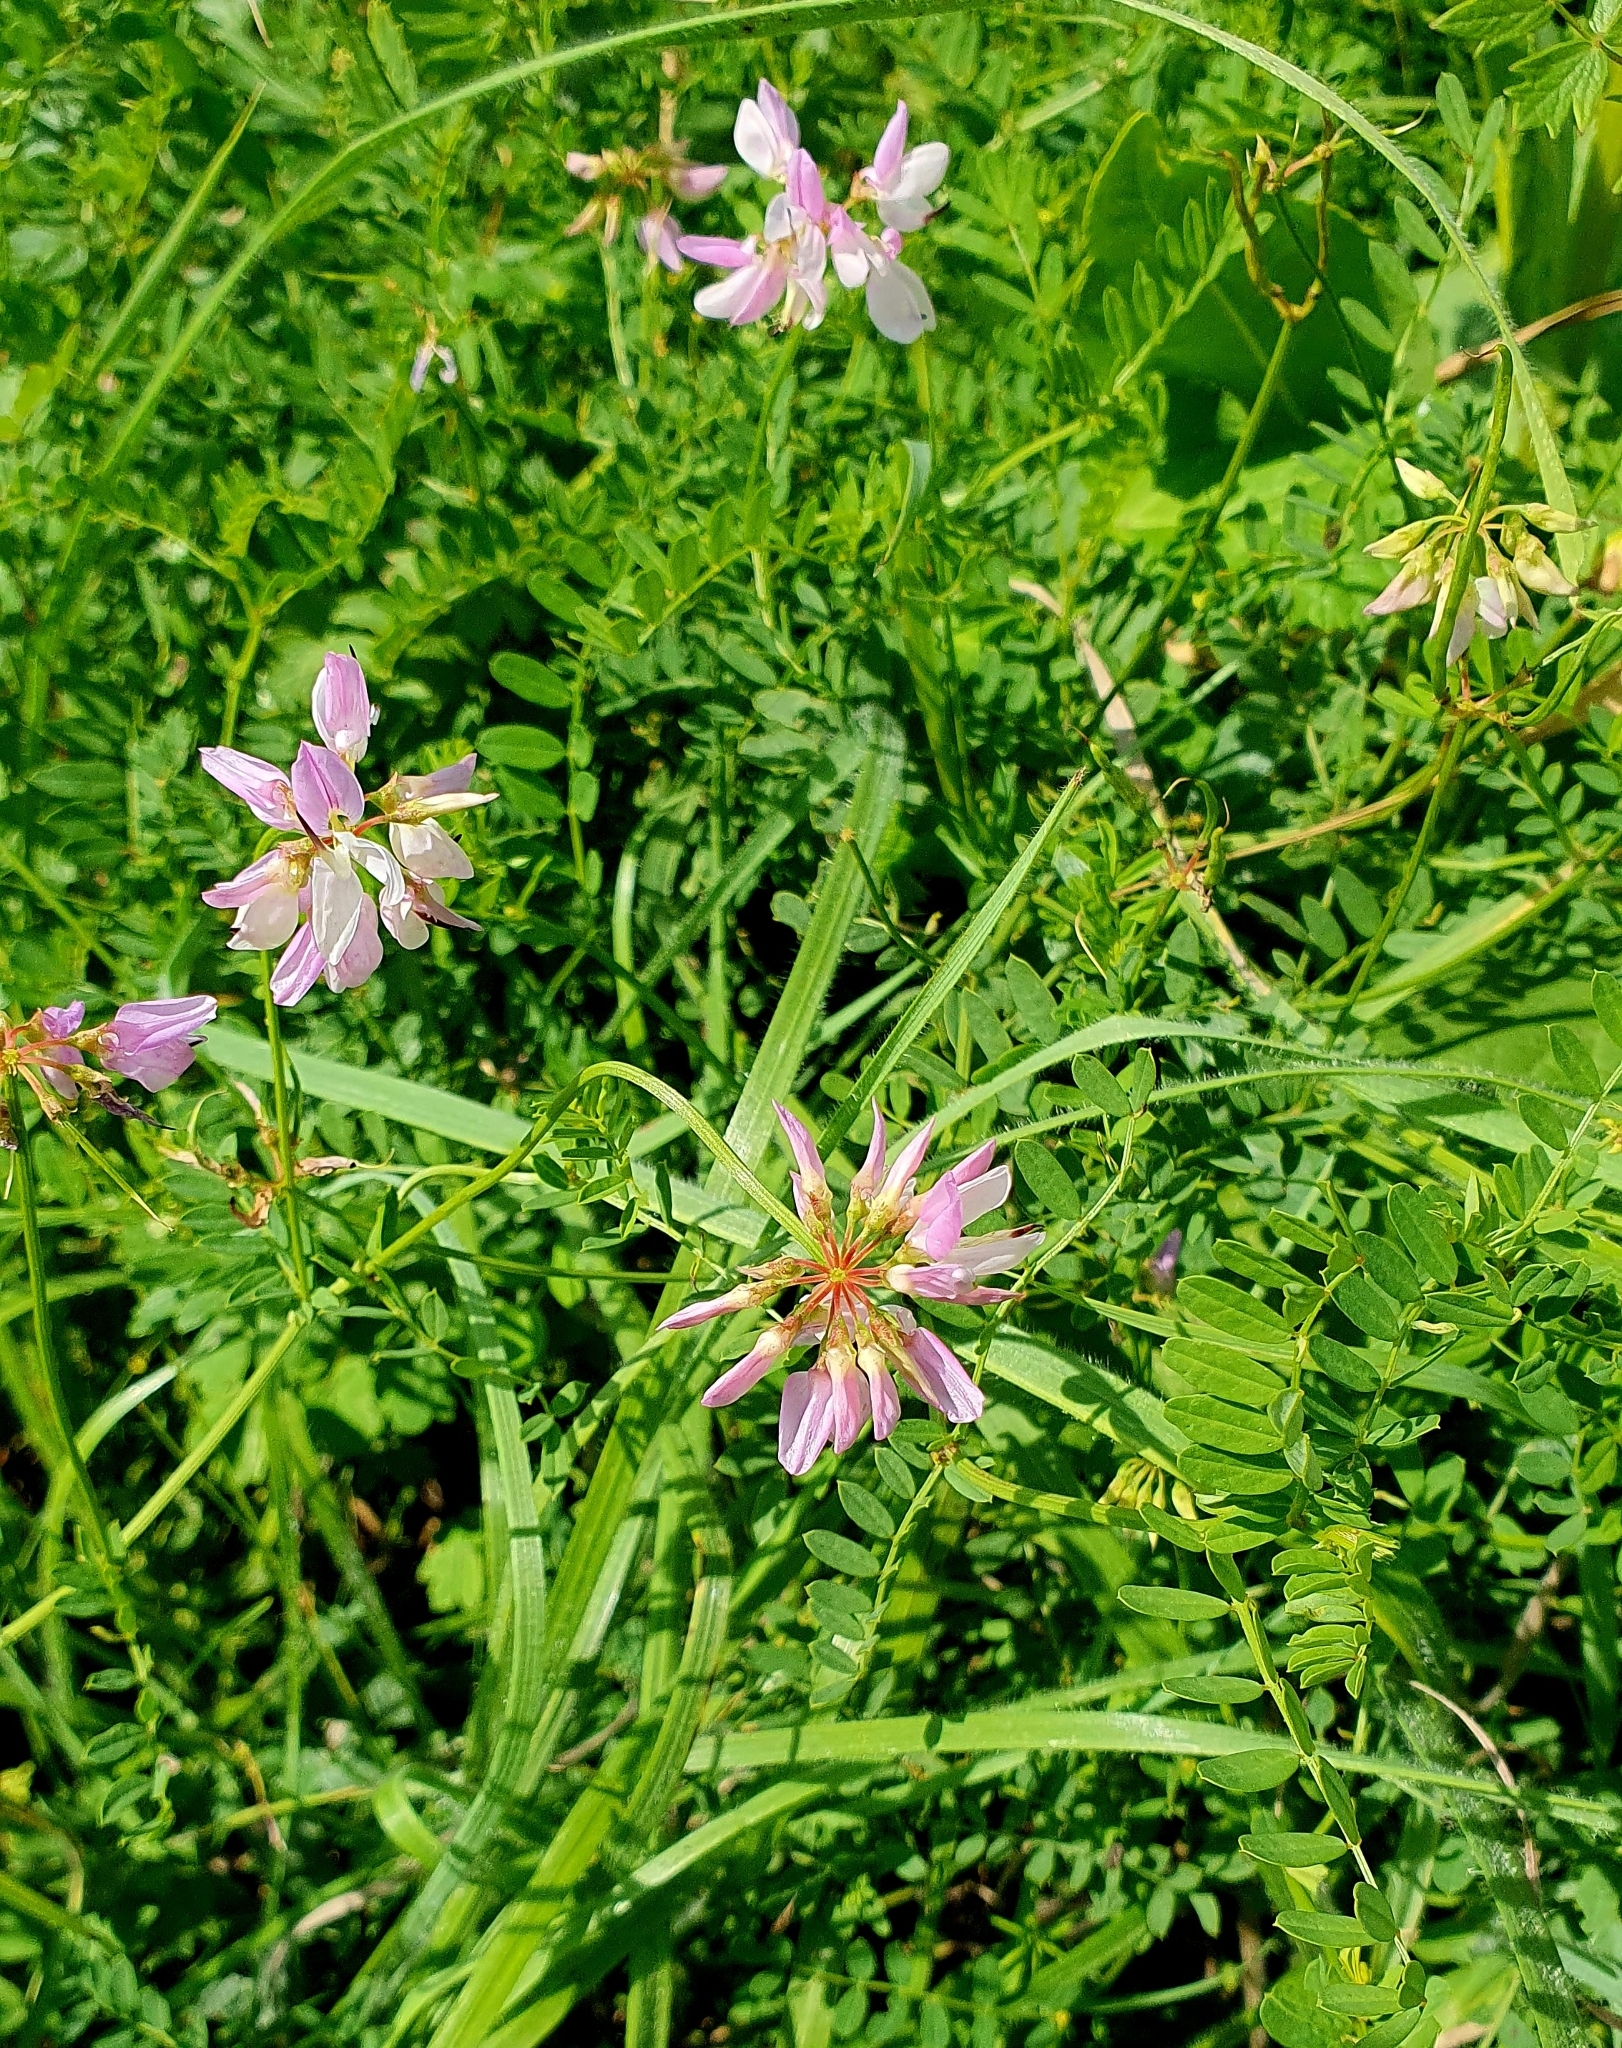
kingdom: Plantae
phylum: Tracheophyta
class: Magnoliopsida
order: Fabales
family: Fabaceae
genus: Coronilla
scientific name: Coronilla varia
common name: Crownvetch
